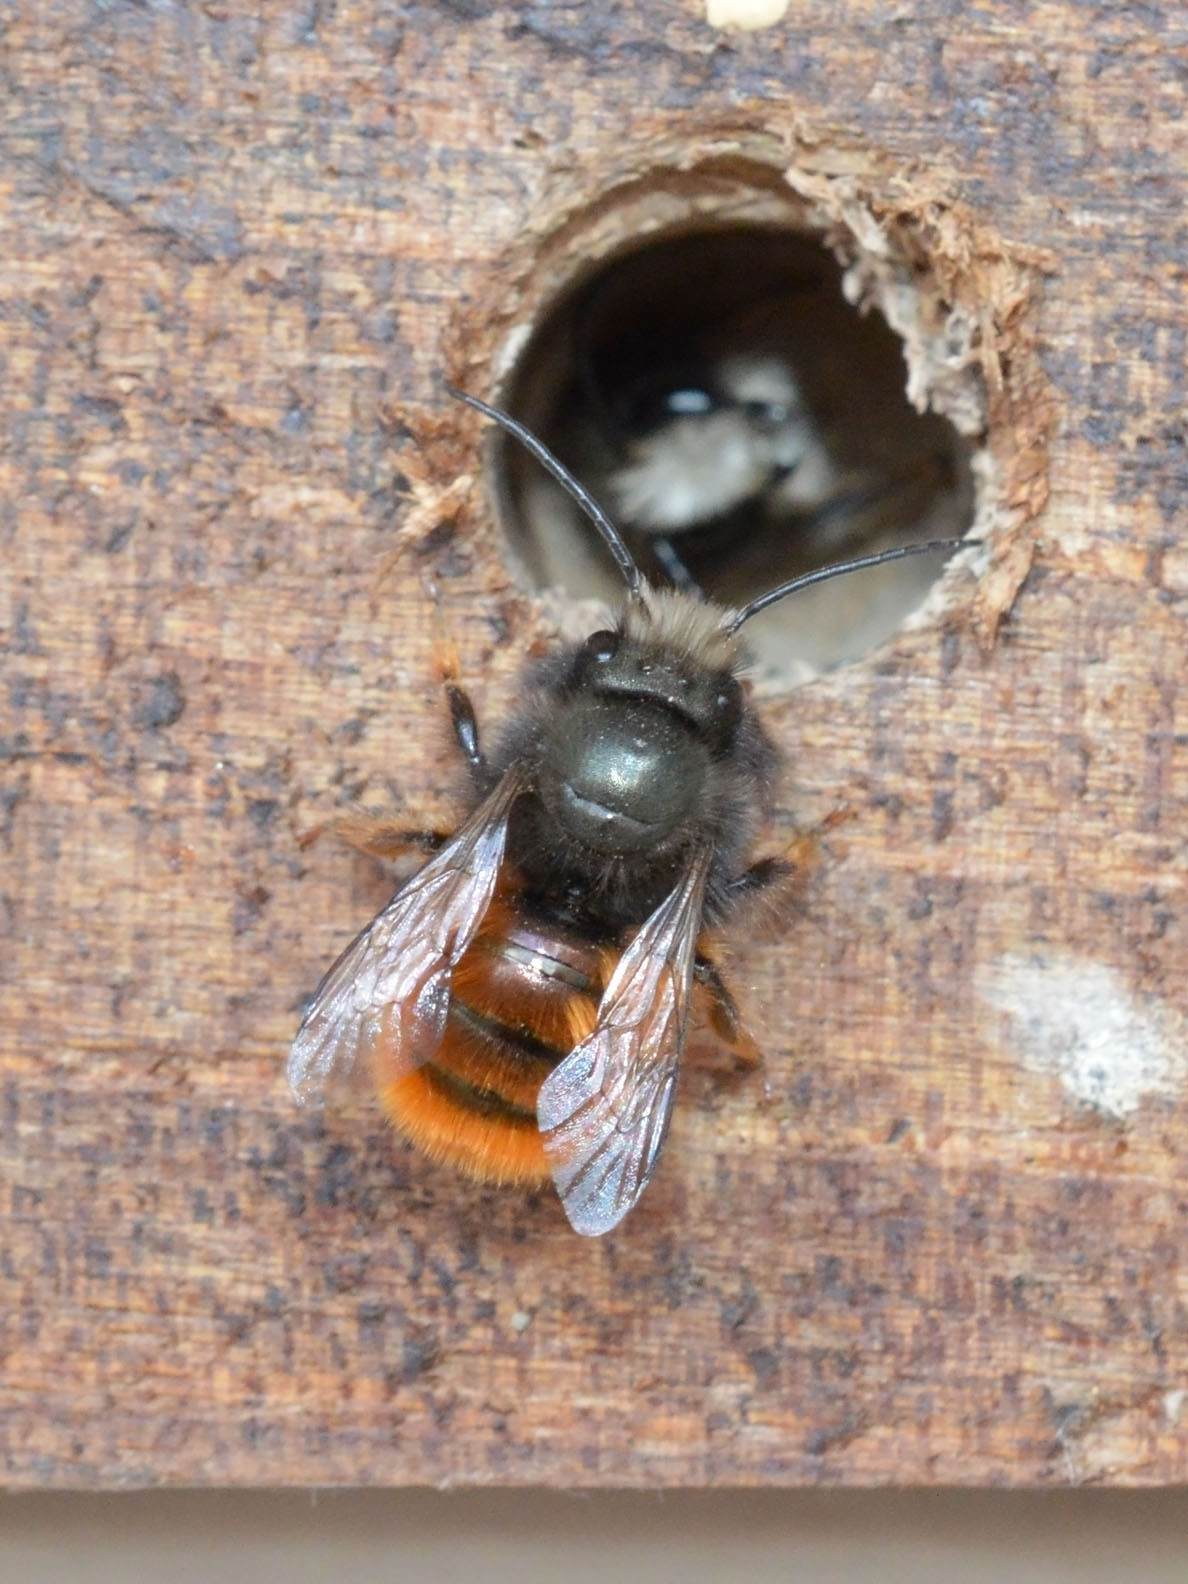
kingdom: Animalia
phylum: Arthropoda
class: Insecta
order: Hymenoptera
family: Megachilidae
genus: Osmia
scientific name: Osmia cornuta
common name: Mason bee
